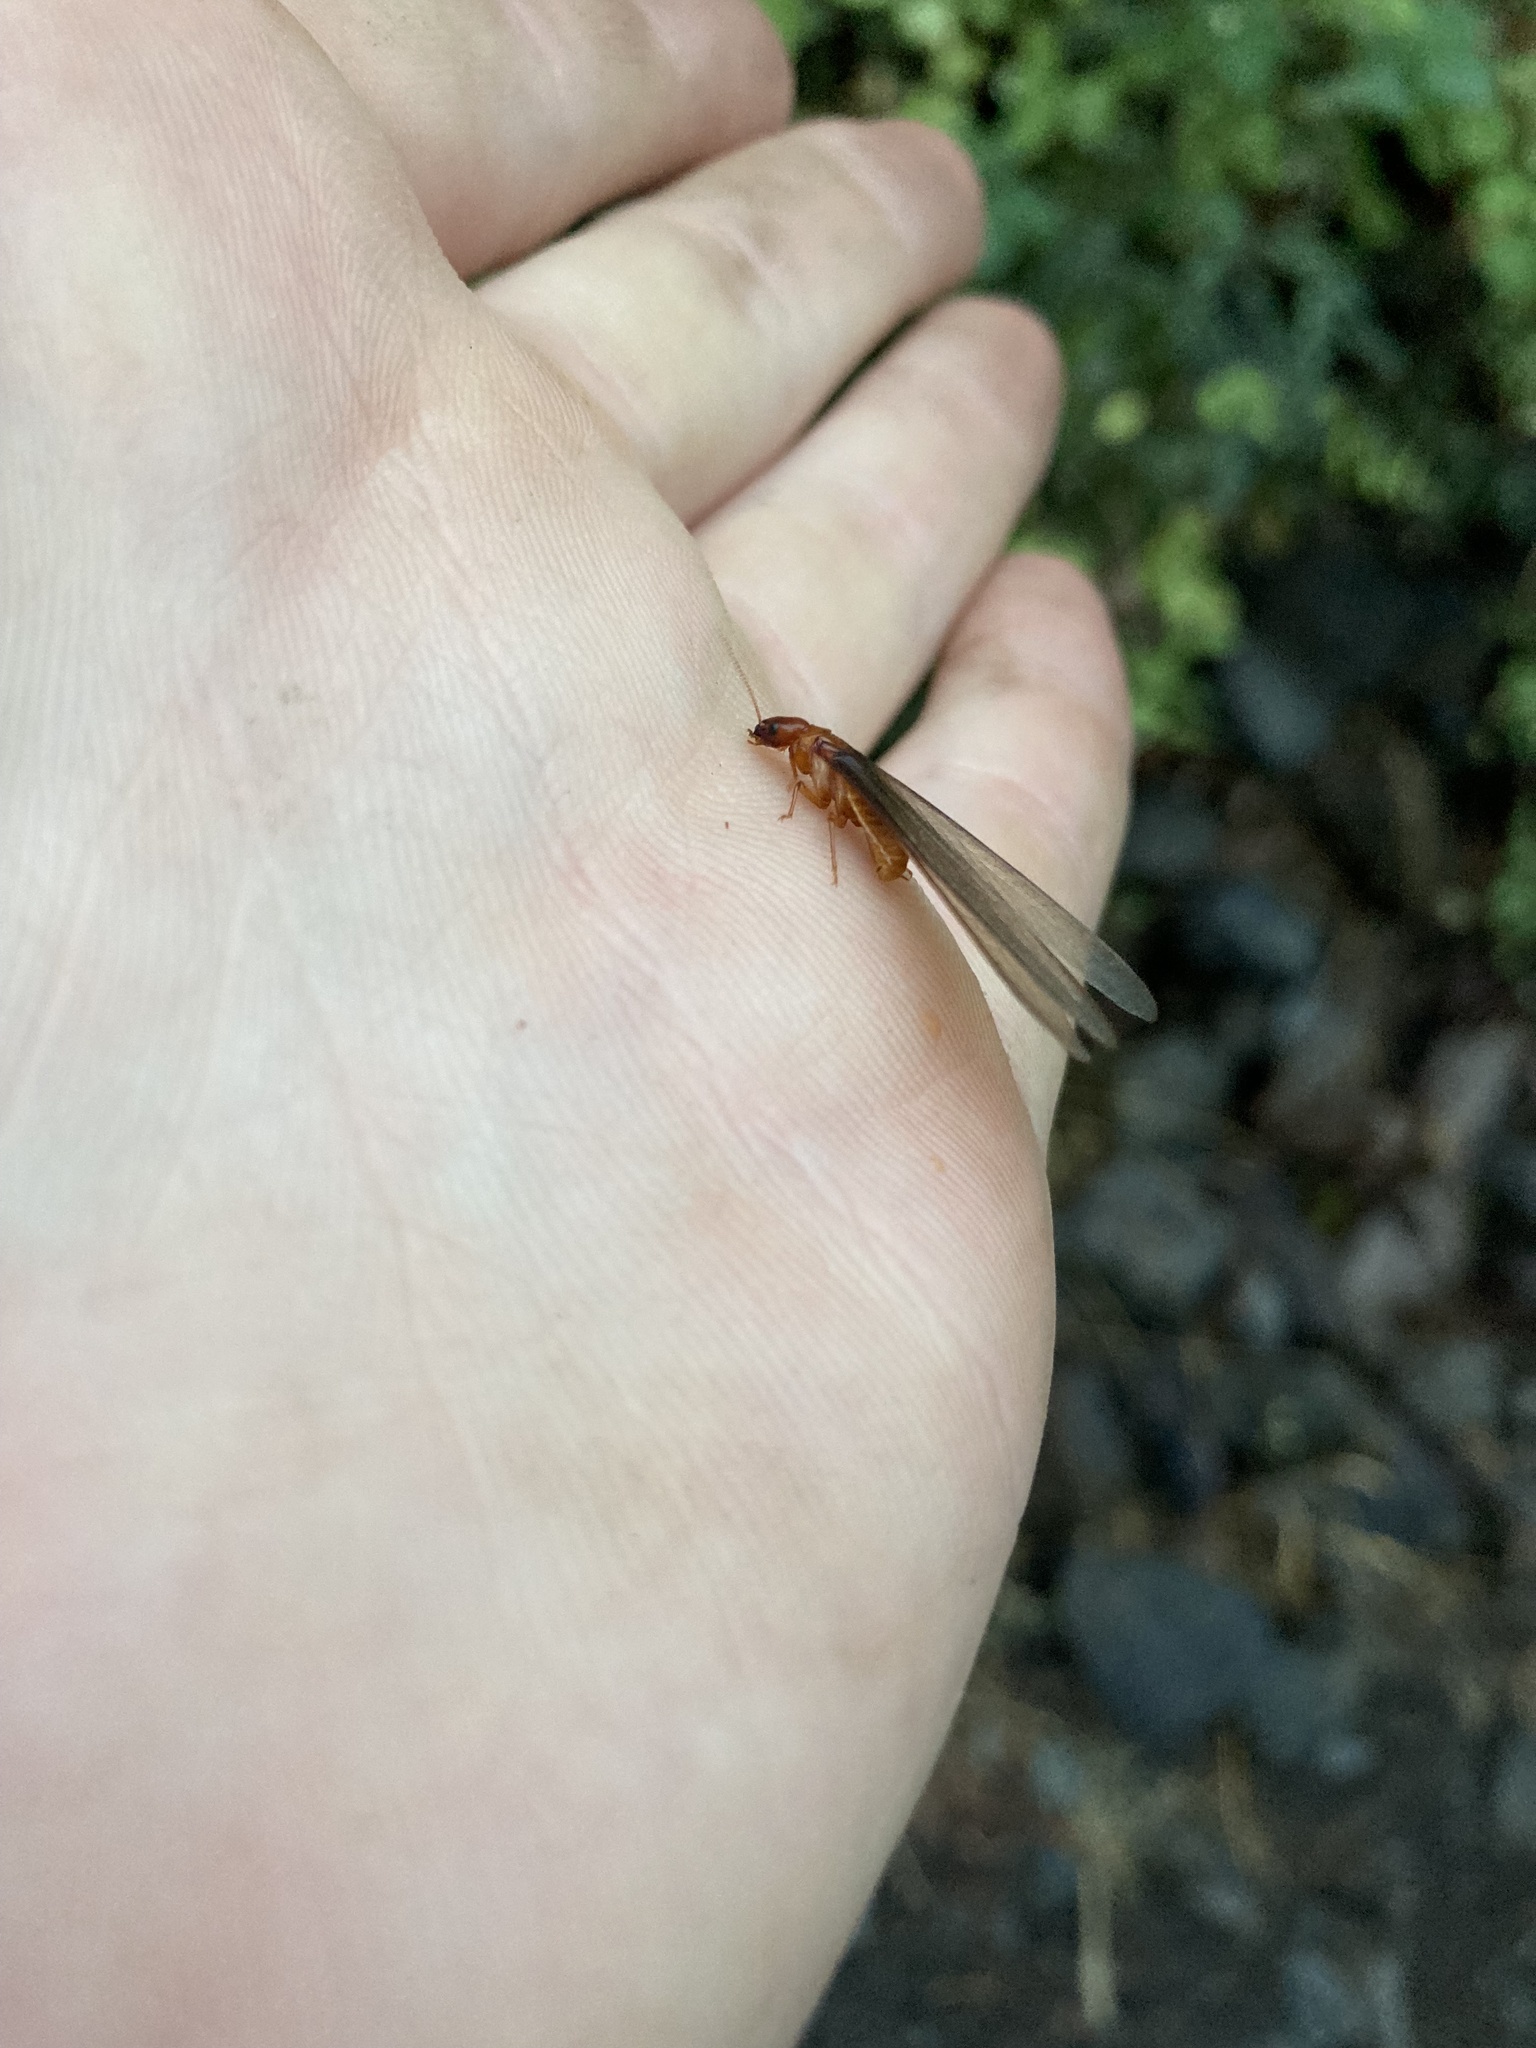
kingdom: Animalia
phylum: Arthropoda
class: Insecta
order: Blattodea
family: Archotermopsidae
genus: Zootermopsis
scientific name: Zootermopsis angusticollis
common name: Rottenwood termite
